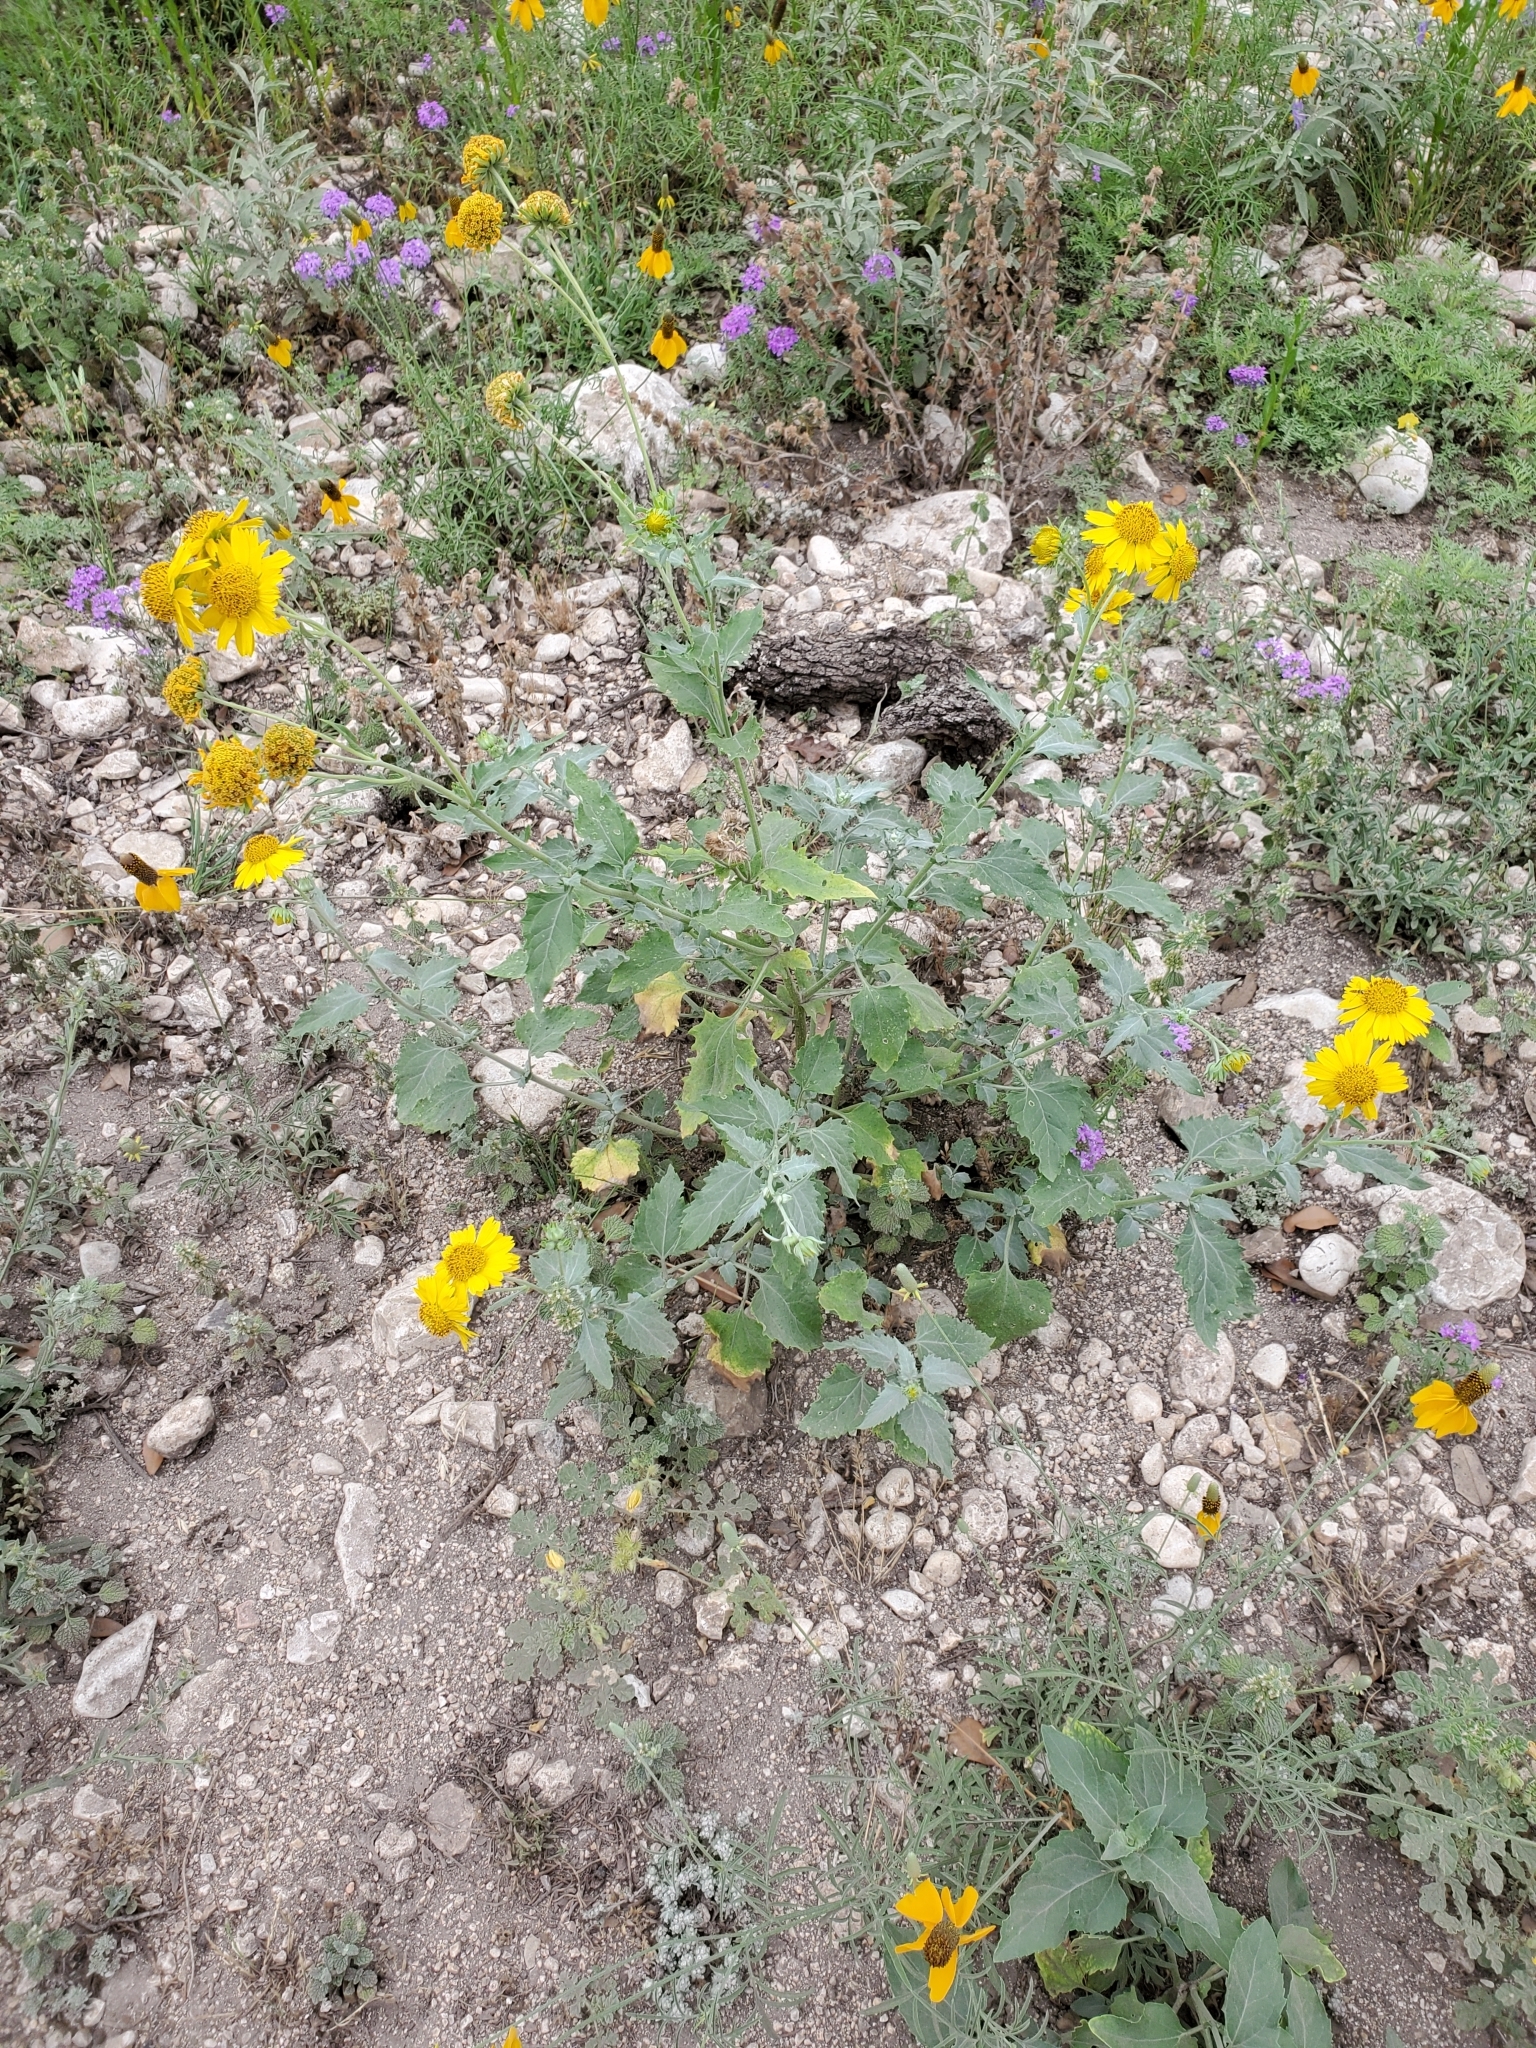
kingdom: Plantae
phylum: Tracheophyta
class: Magnoliopsida
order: Asterales
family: Asteraceae
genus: Verbesina
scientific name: Verbesina encelioides
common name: Golden crownbeard
